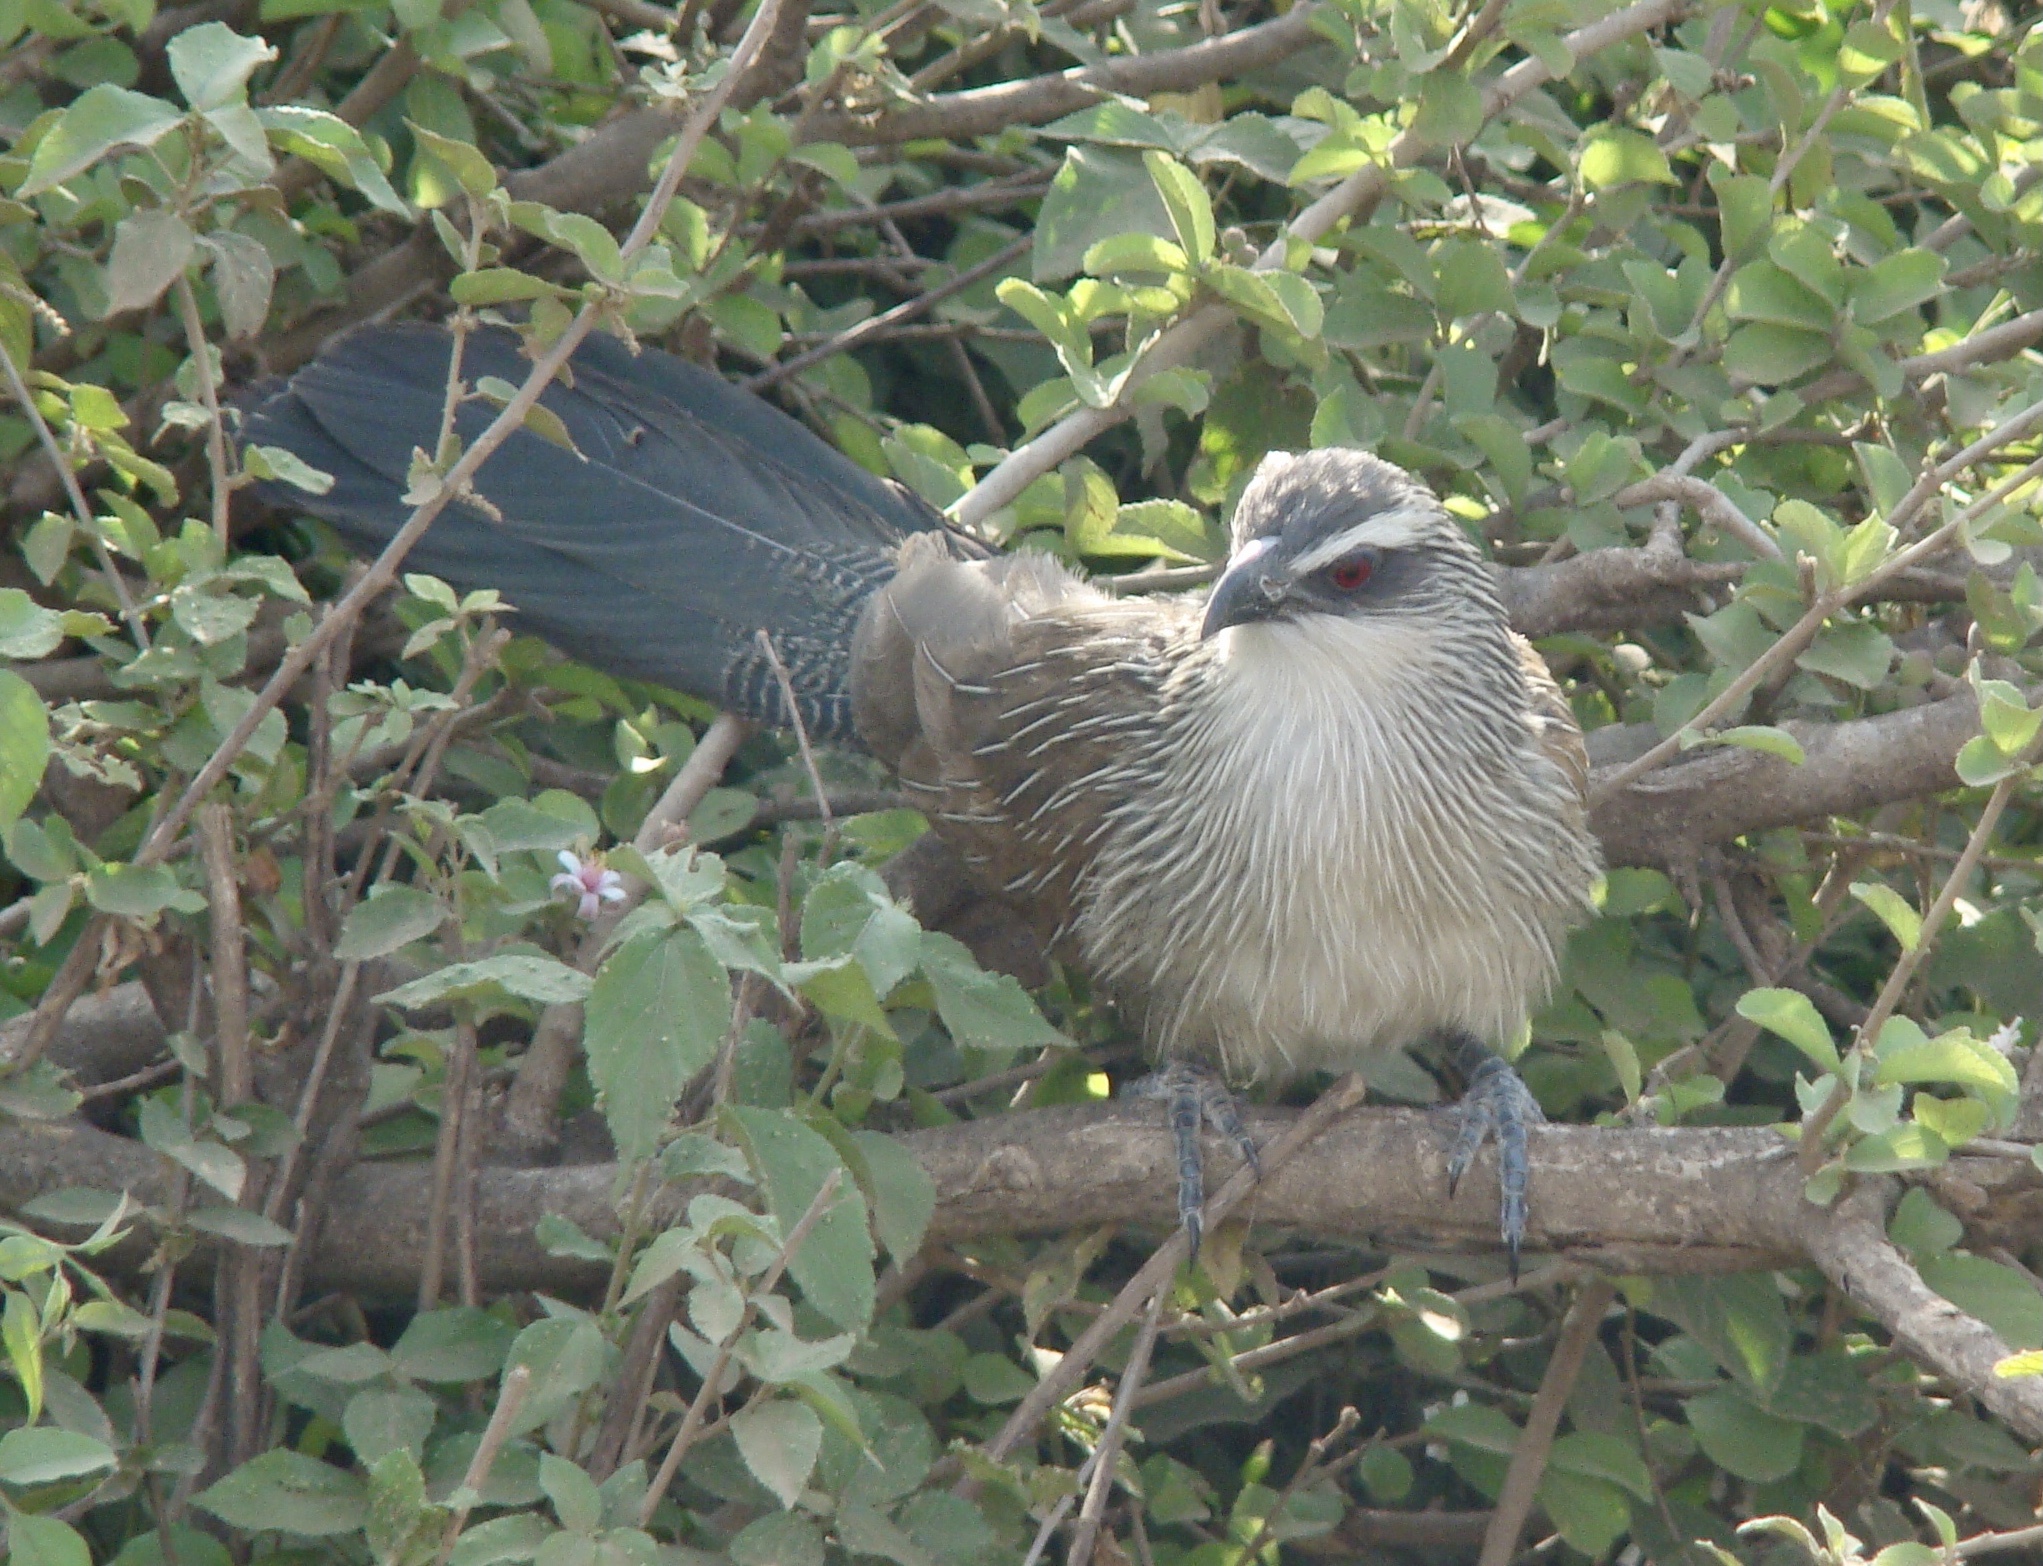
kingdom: Animalia
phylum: Chordata
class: Aves
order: Cuculiformes
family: Cuculidae
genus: Centropus
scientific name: Centropus superciliosus
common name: White-browed coucal
